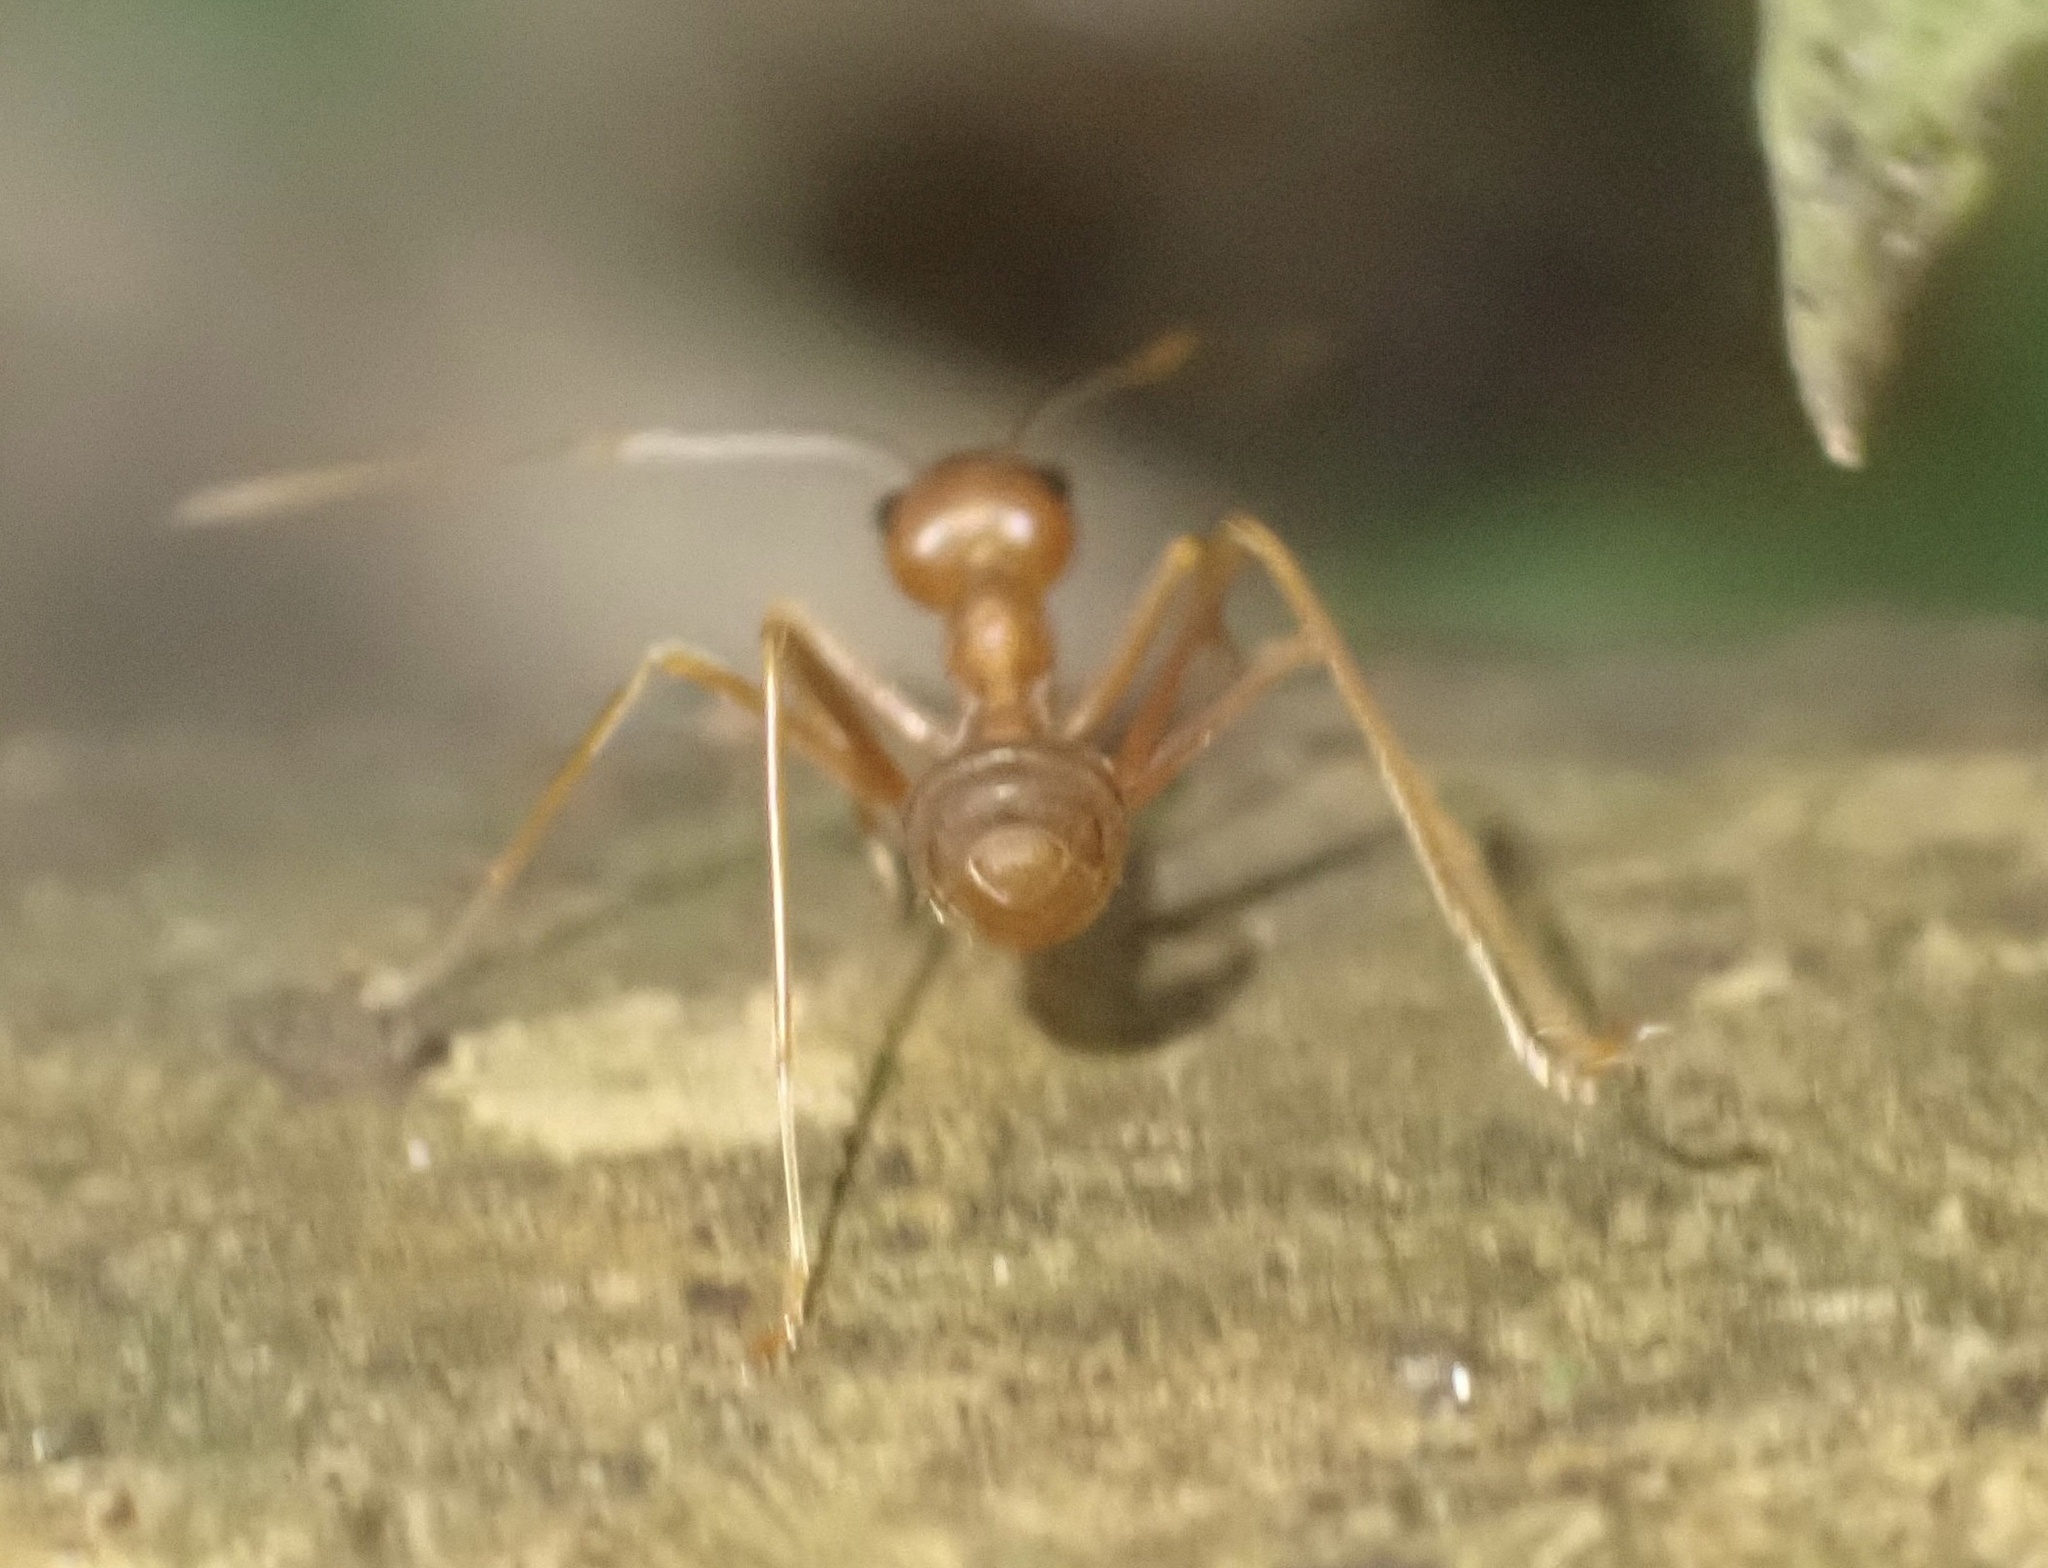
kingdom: Animalia
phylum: Arthropoda
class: Insecta
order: Hymenoptera
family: Formicidae
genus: Oecophylla
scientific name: Oecophylla smaragdina
